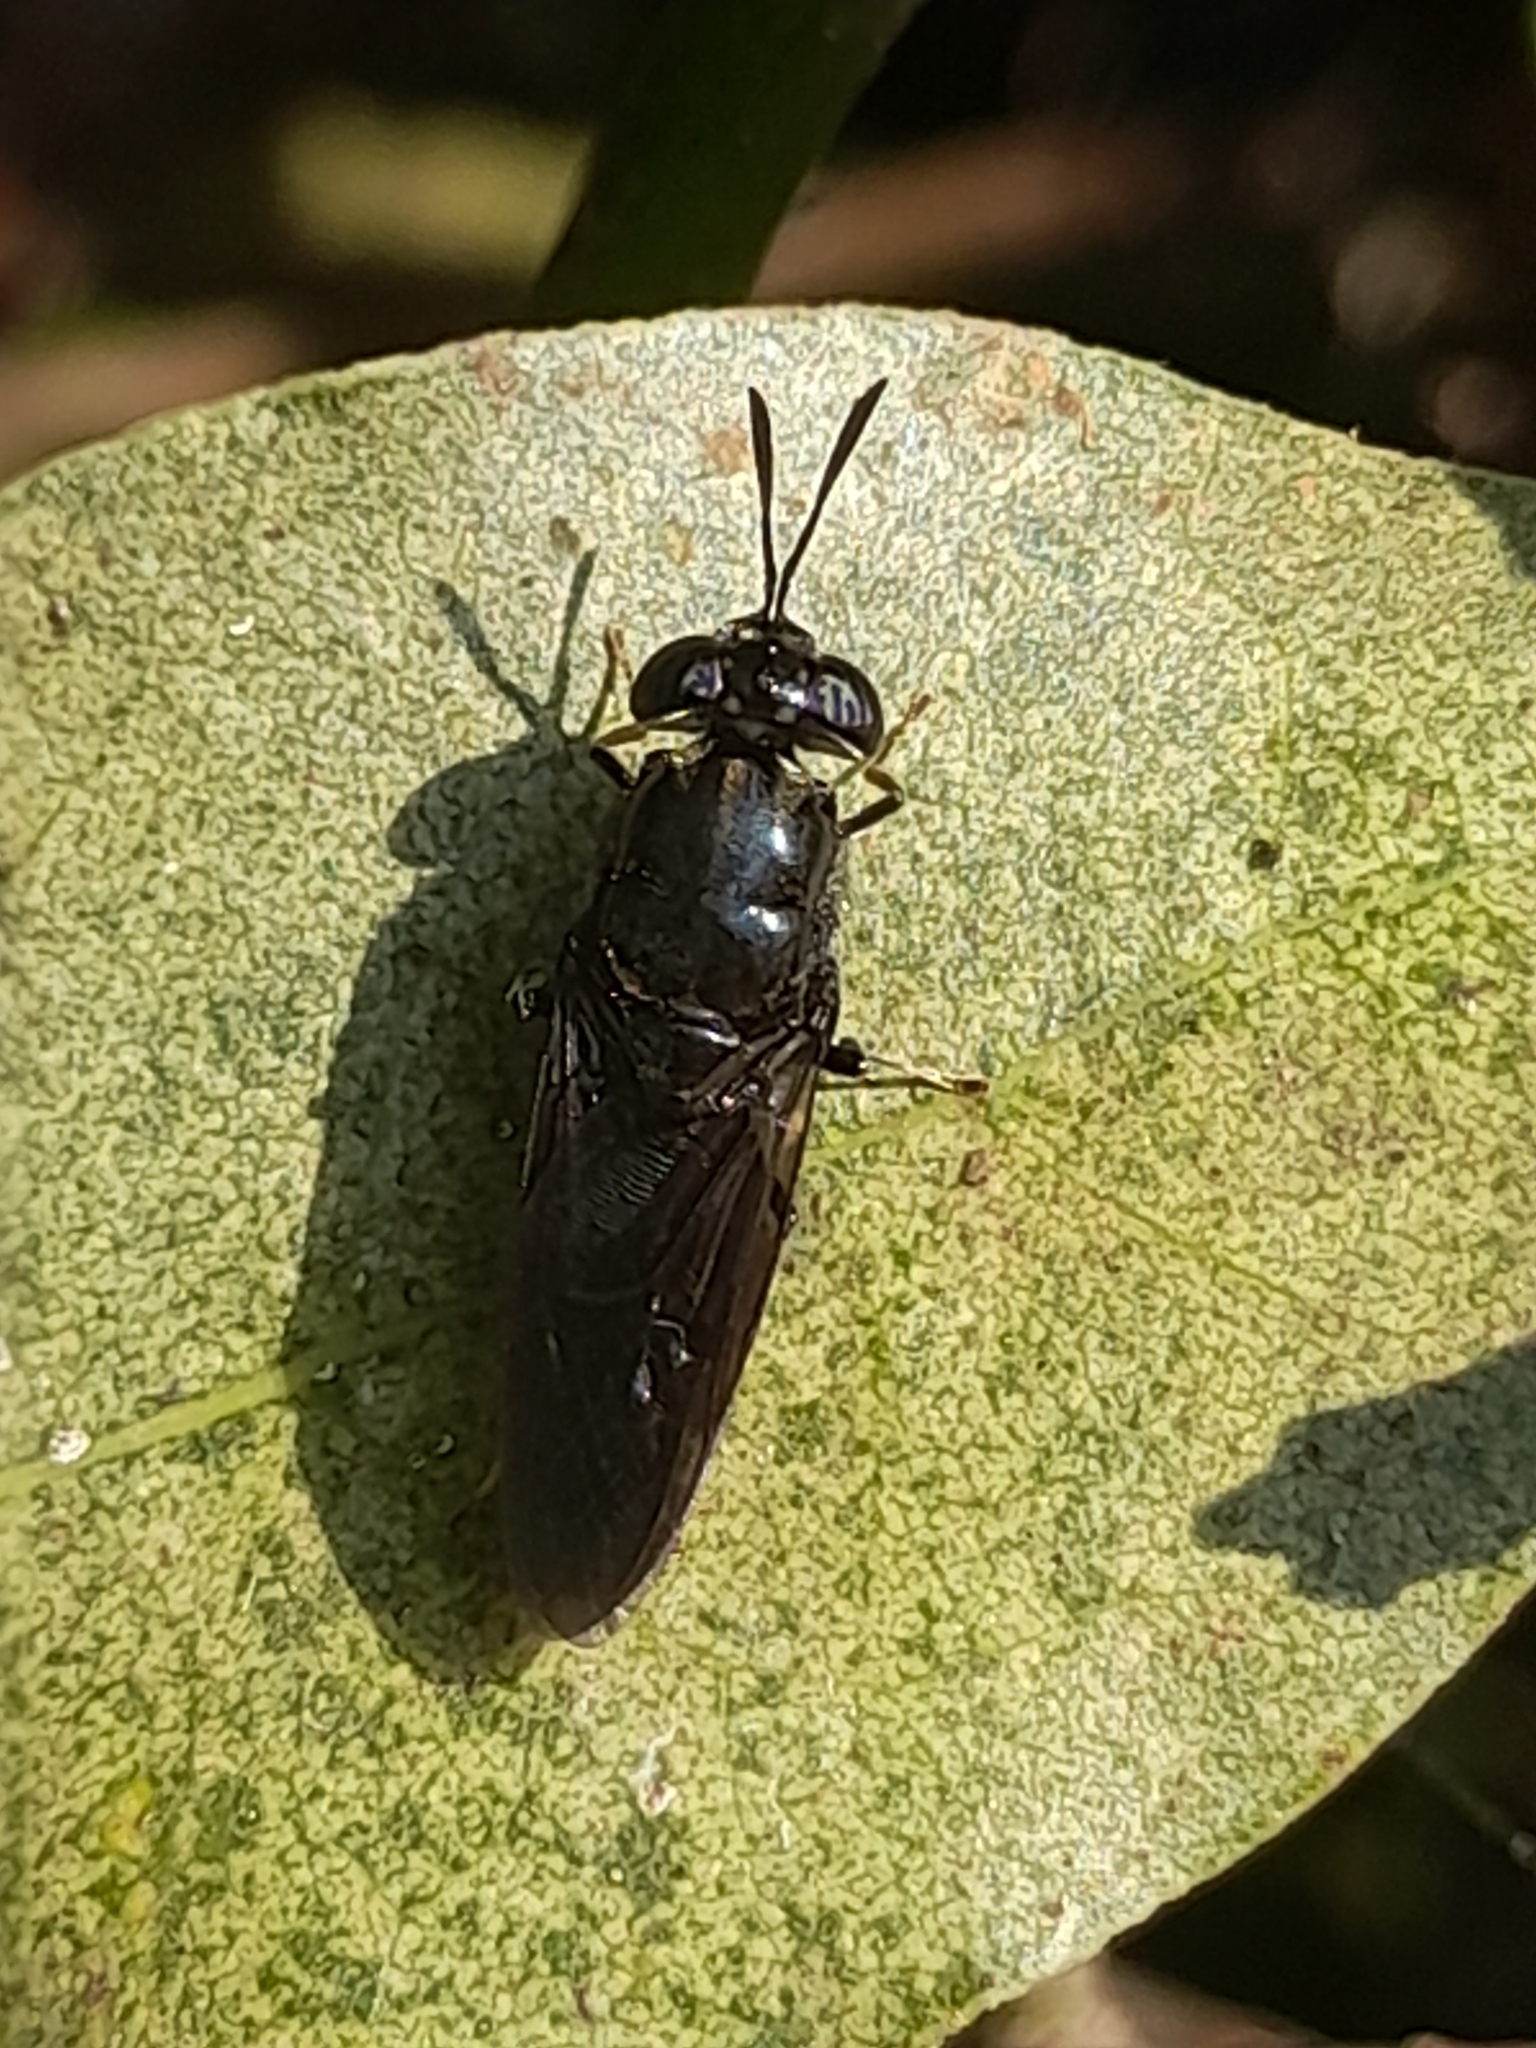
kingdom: Animalia
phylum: Arthropoda
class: Insecta
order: Diptera
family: Stratiomyidae
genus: Hermetia
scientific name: Hermetia illucens
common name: Black soldier fly
